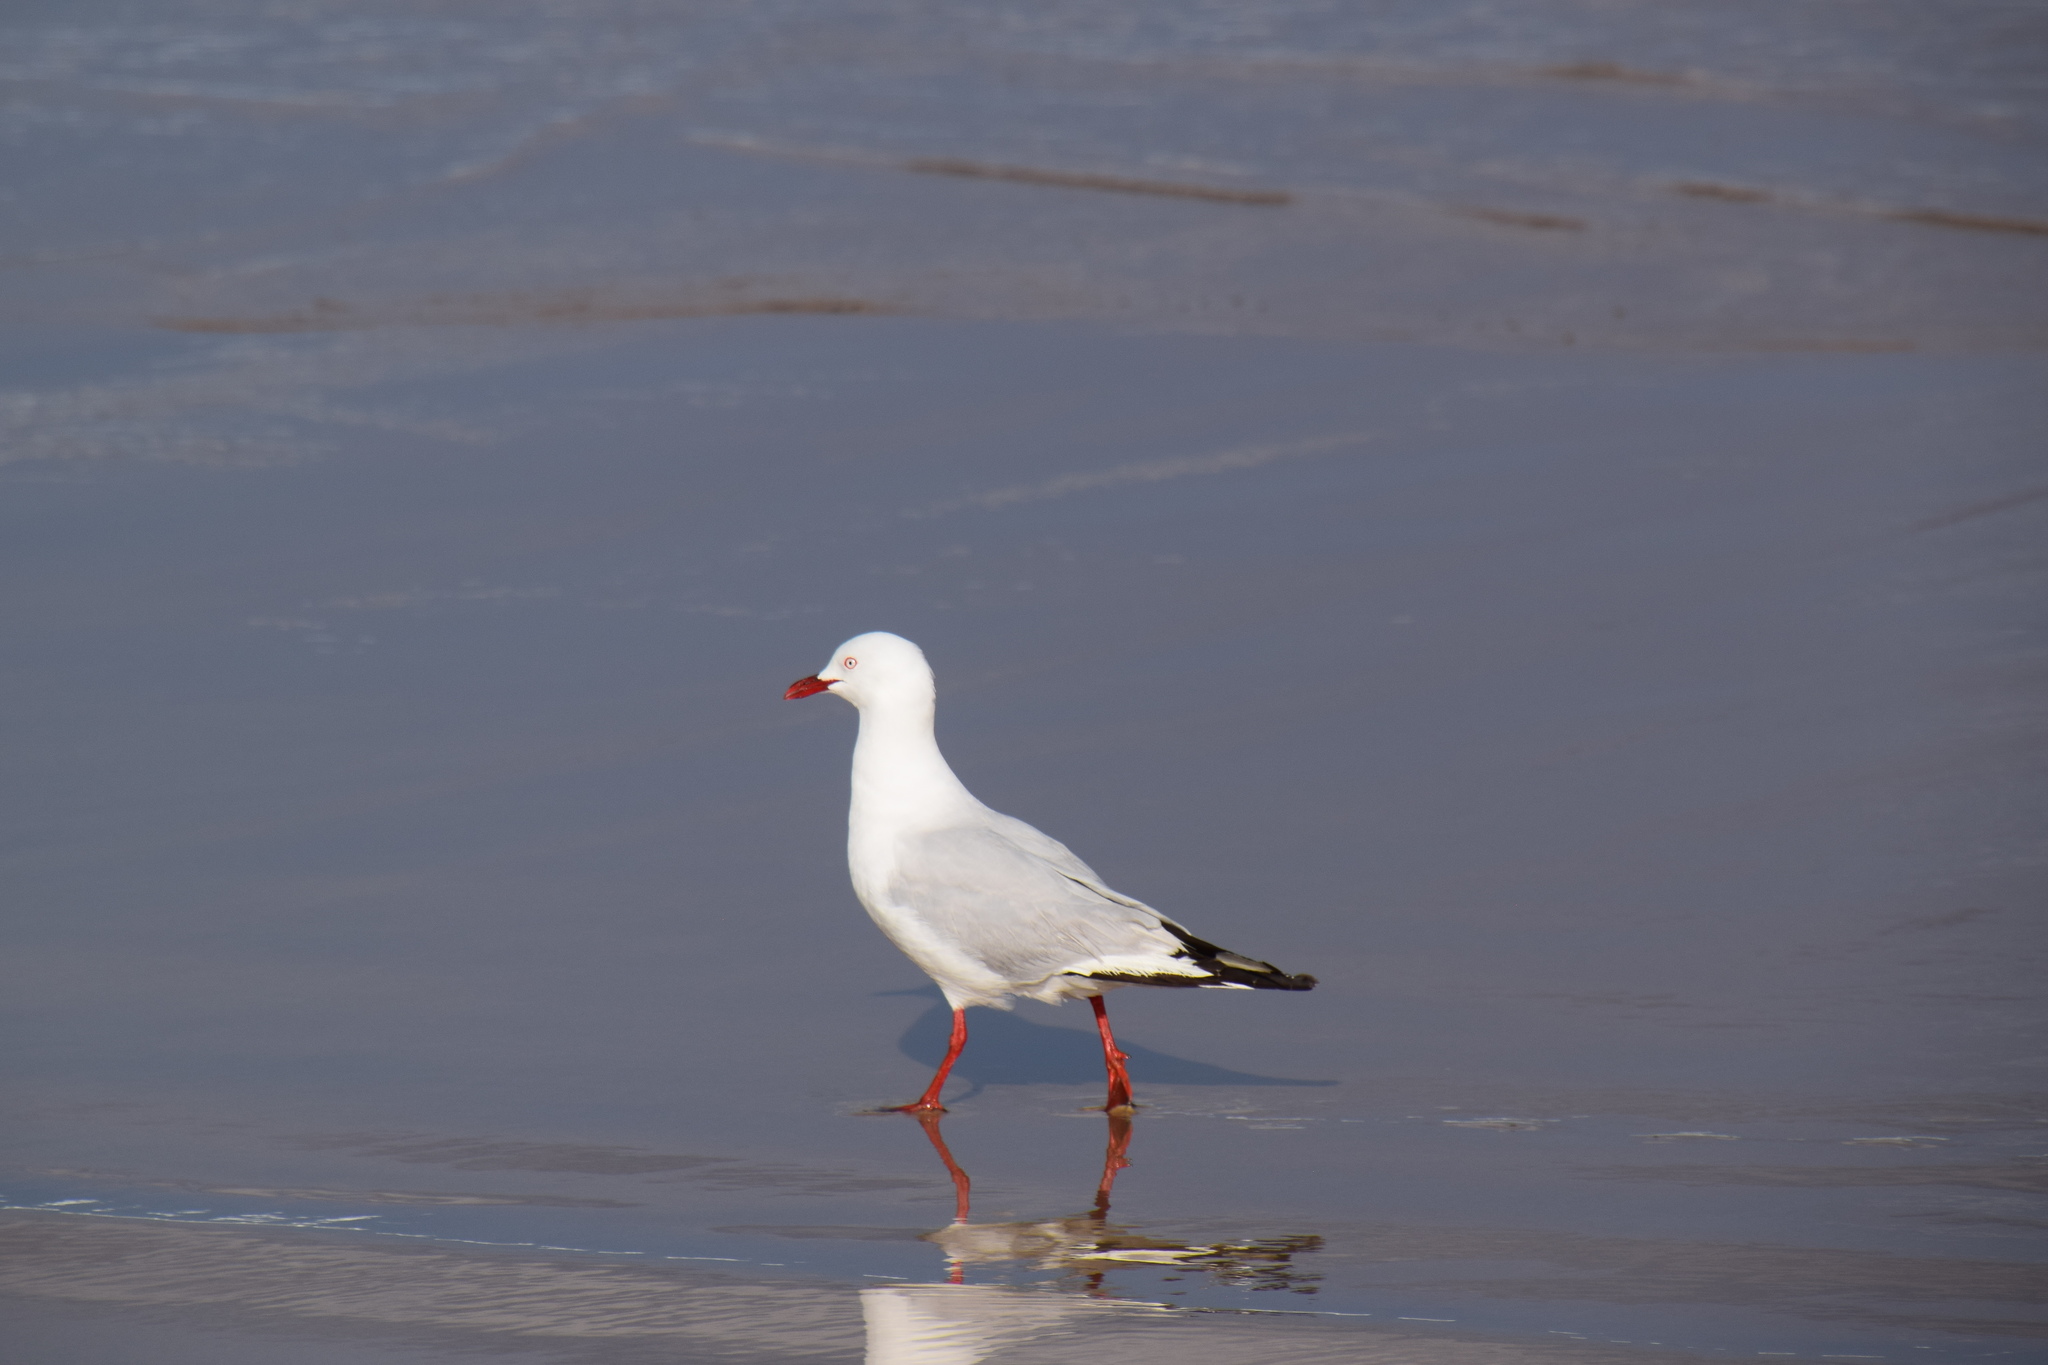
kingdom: Animalia
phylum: Chordata
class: Aves
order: Charadriiformes
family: Laridae
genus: Chroicocephalus
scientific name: Chroicocephalus novaehollandiae
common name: Silver gull
